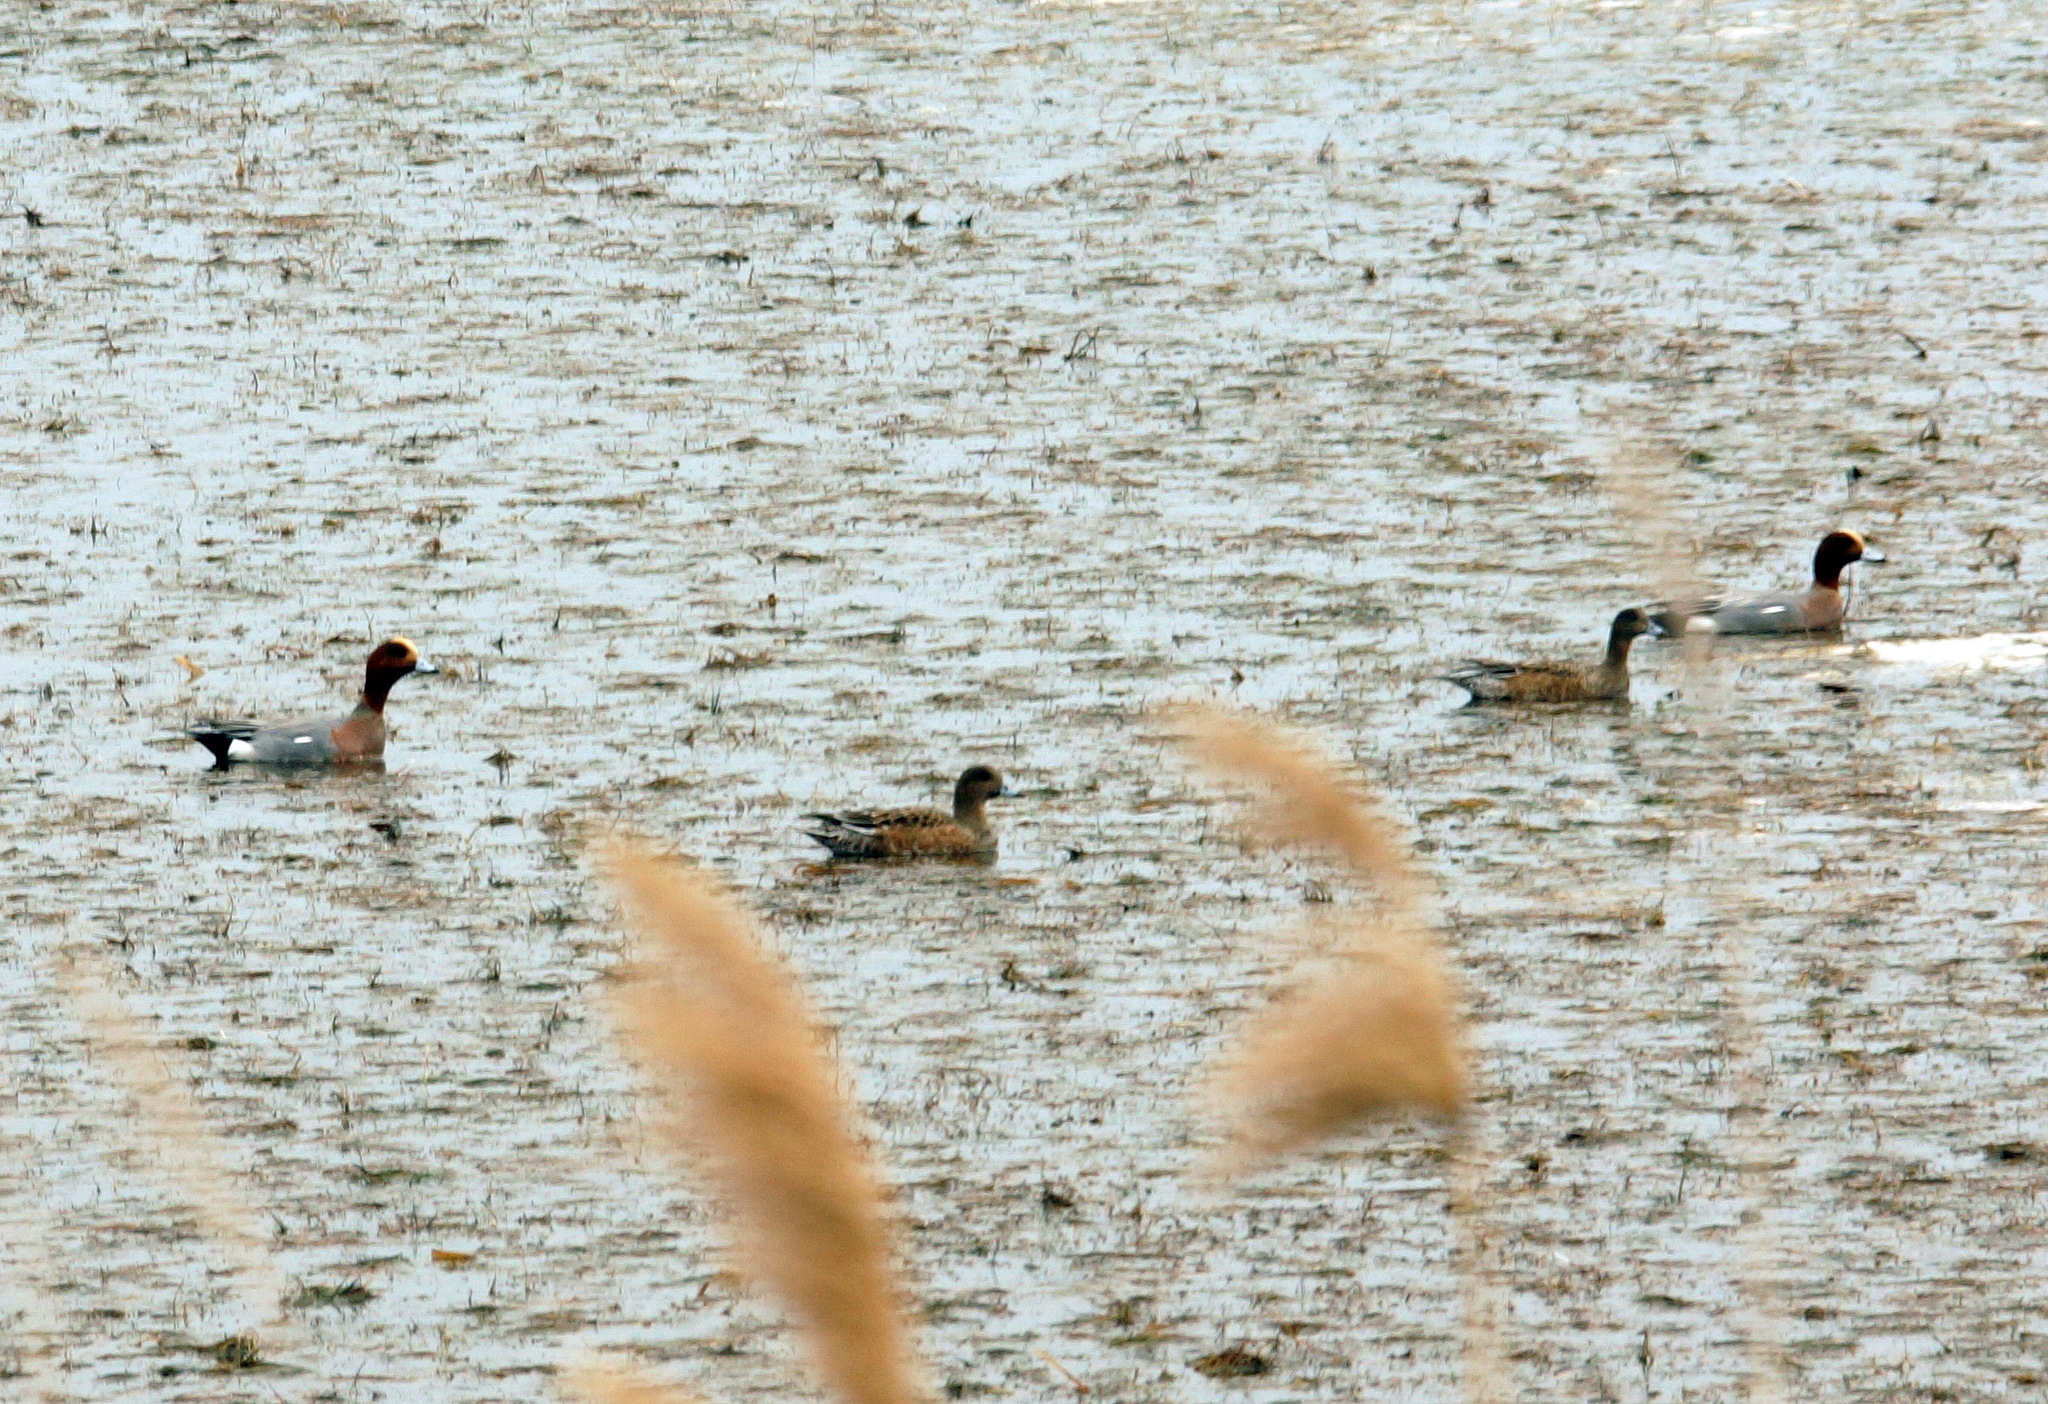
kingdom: Animalia
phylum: Chordata
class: Aves
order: Anseriformes
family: Anatidae
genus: Mareca
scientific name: Mareca penelope
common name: Eurasian wigeon
